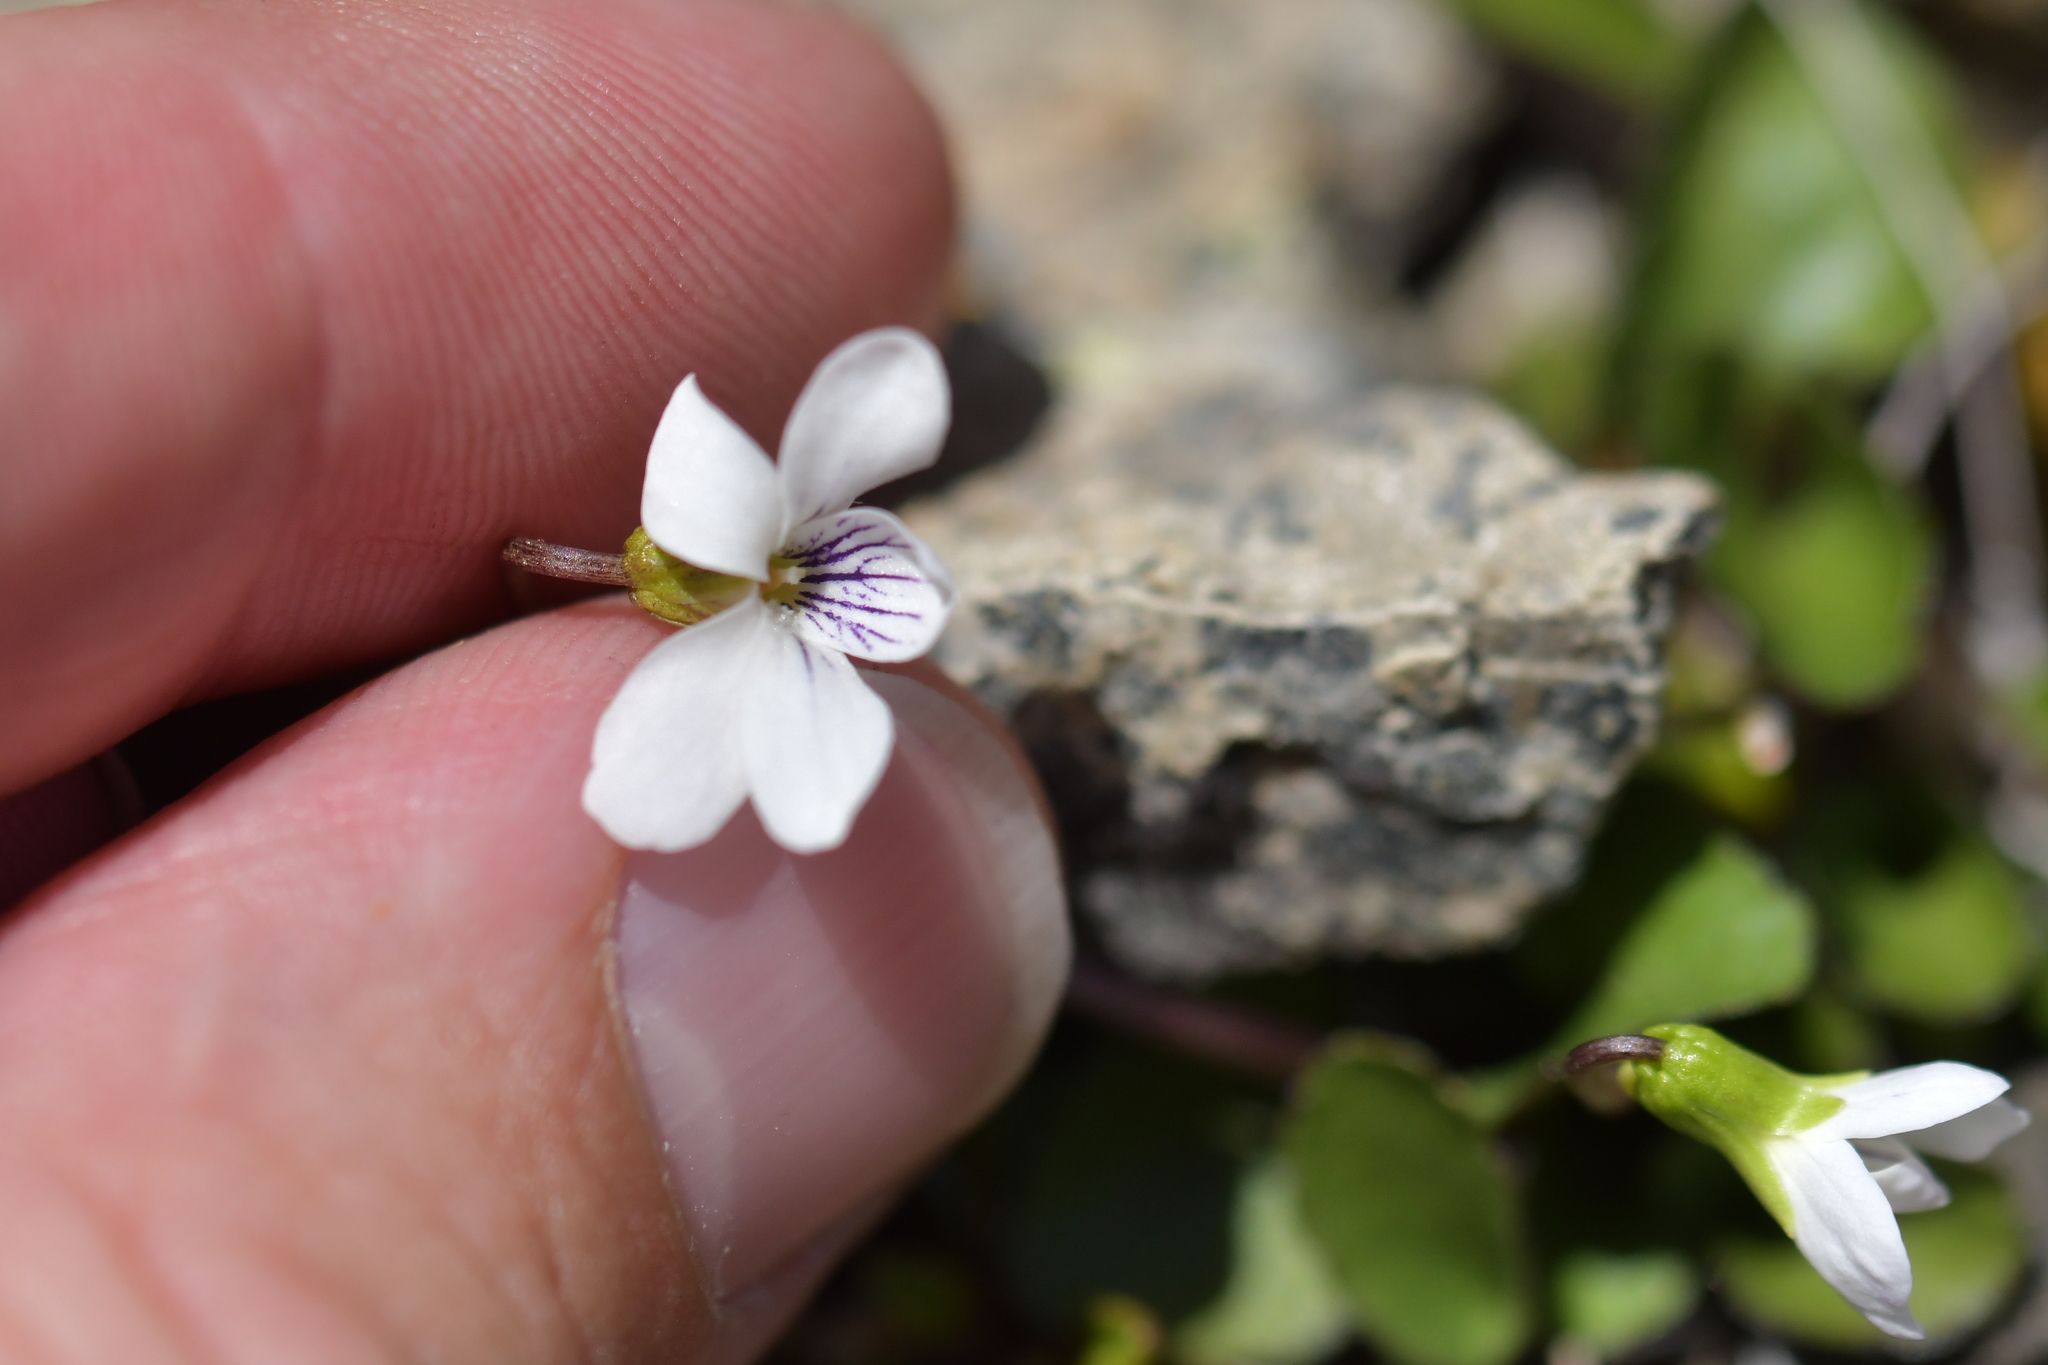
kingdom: Plantae
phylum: Tracheophyta
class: Magnoliopsida
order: Malpighiales
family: Violaceae
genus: Viola
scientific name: Viola cunninghamii
